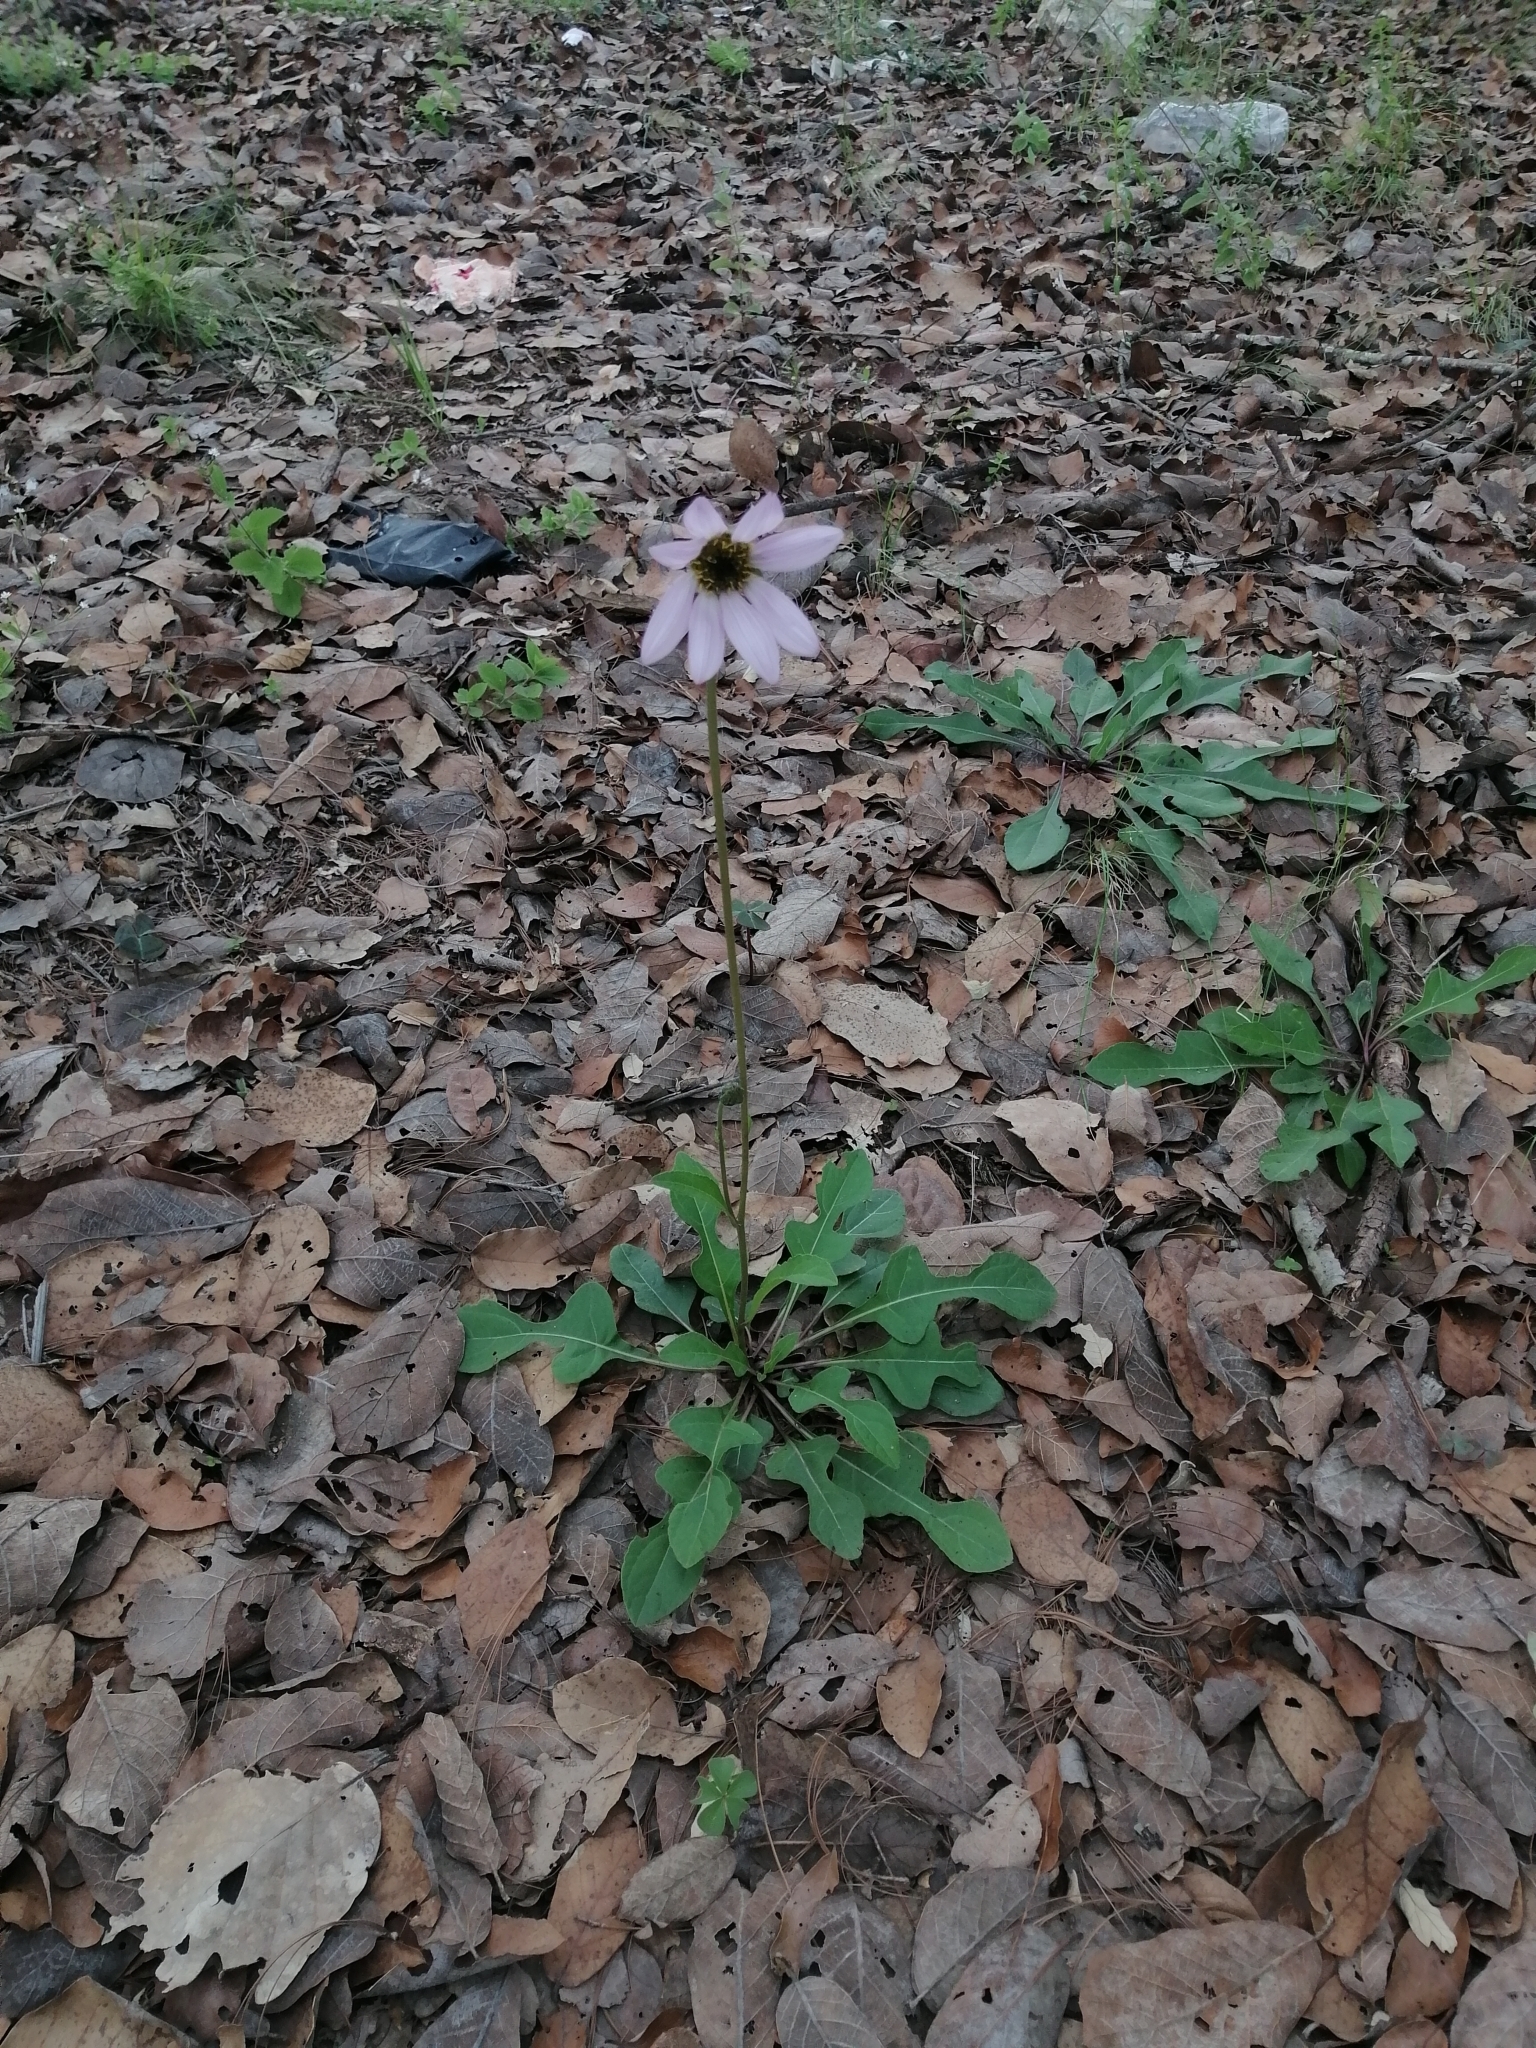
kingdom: Plantae
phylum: Tracheophyta
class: Magnoliopsida
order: Asterales
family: Asteraceae
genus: Iostephane
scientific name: Iostephane heterophylla
